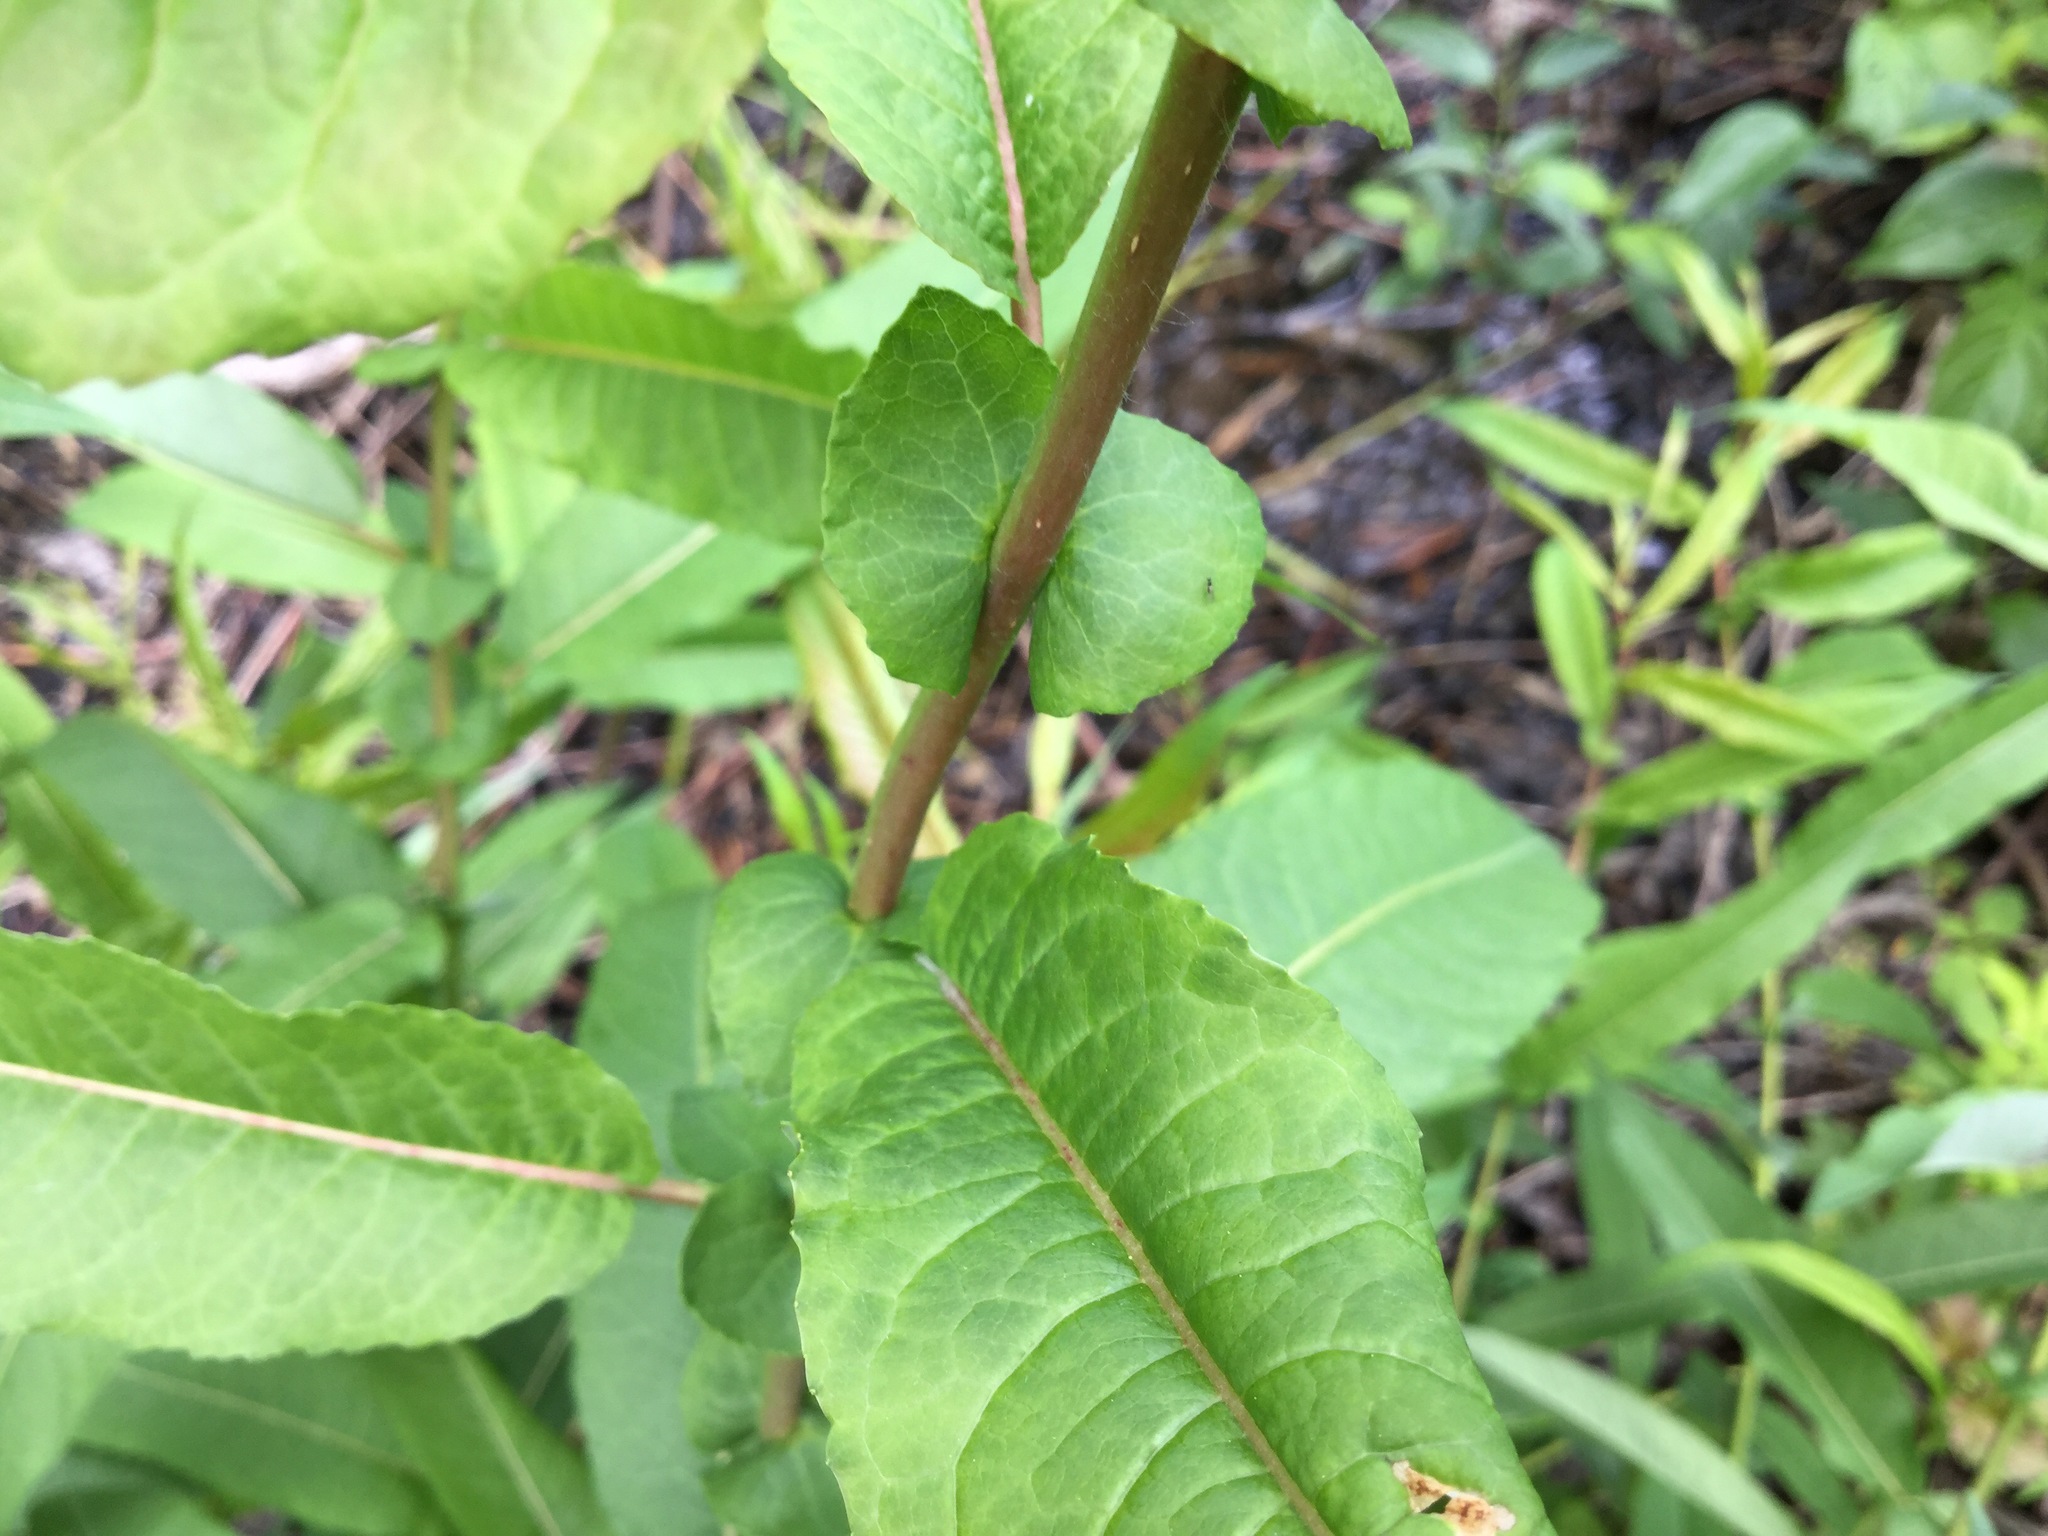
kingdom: Plantae
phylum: Tracheophyta
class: Magnoliopsida
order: Malpighiales
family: Salicaceae
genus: Salix
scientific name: Salix eriocephala
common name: Heart-leaved willow
